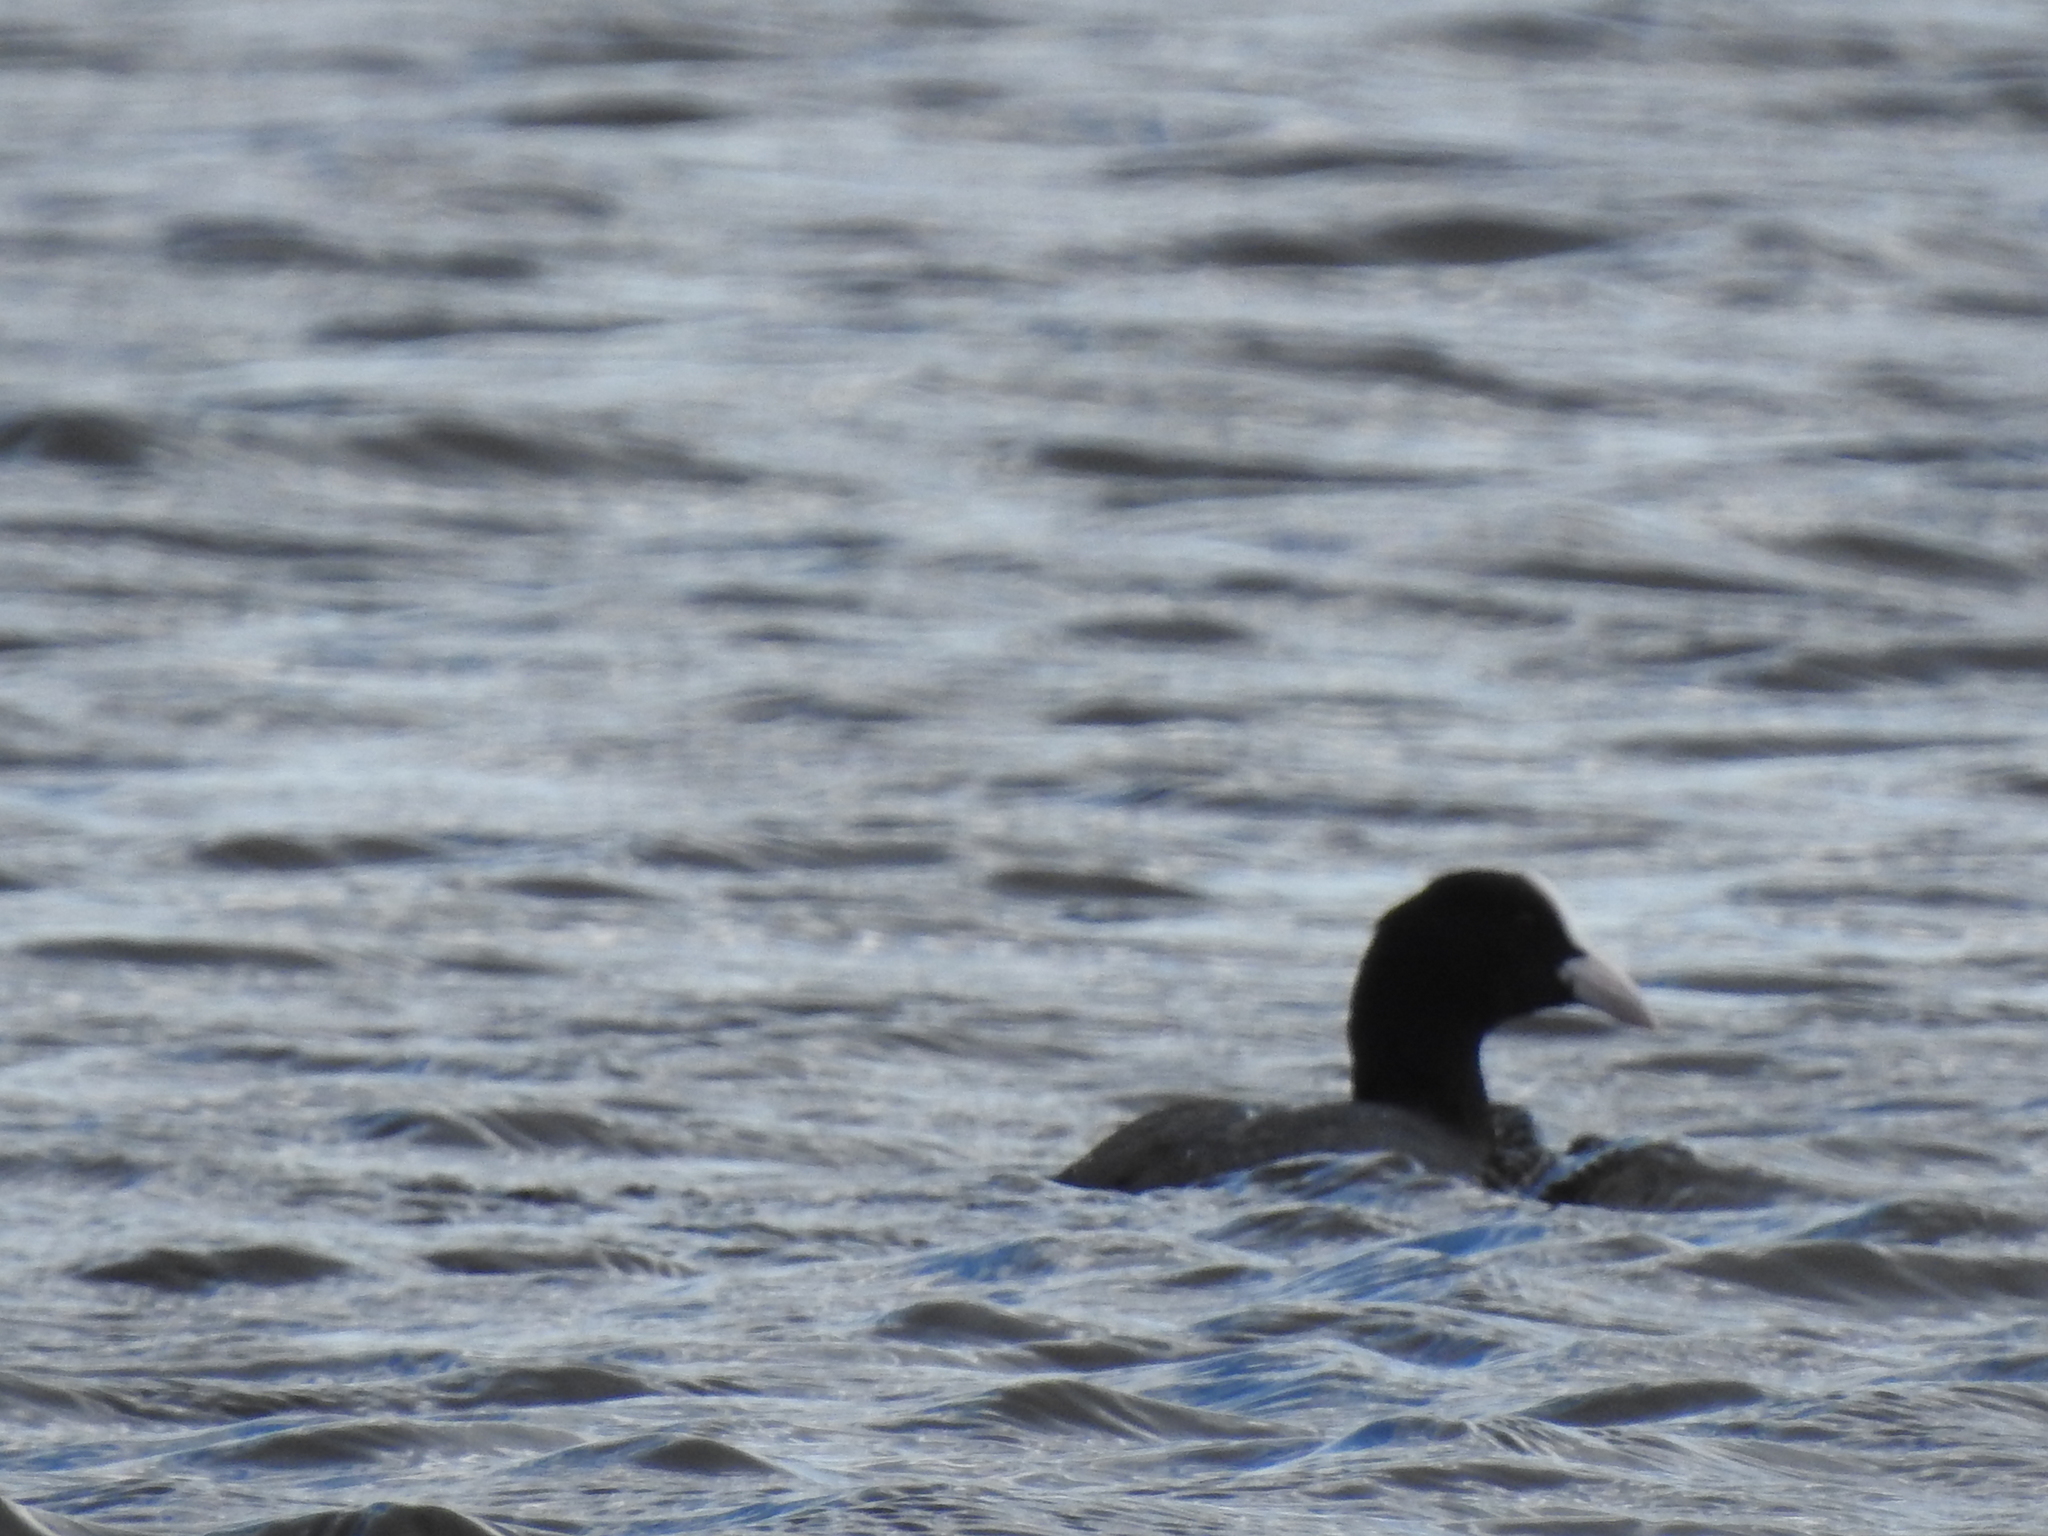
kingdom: Animalia
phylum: Chordata
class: Aves
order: Gruiformes
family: Rallidae
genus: Fulica
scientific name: Fulica atra
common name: Eurasian coot
